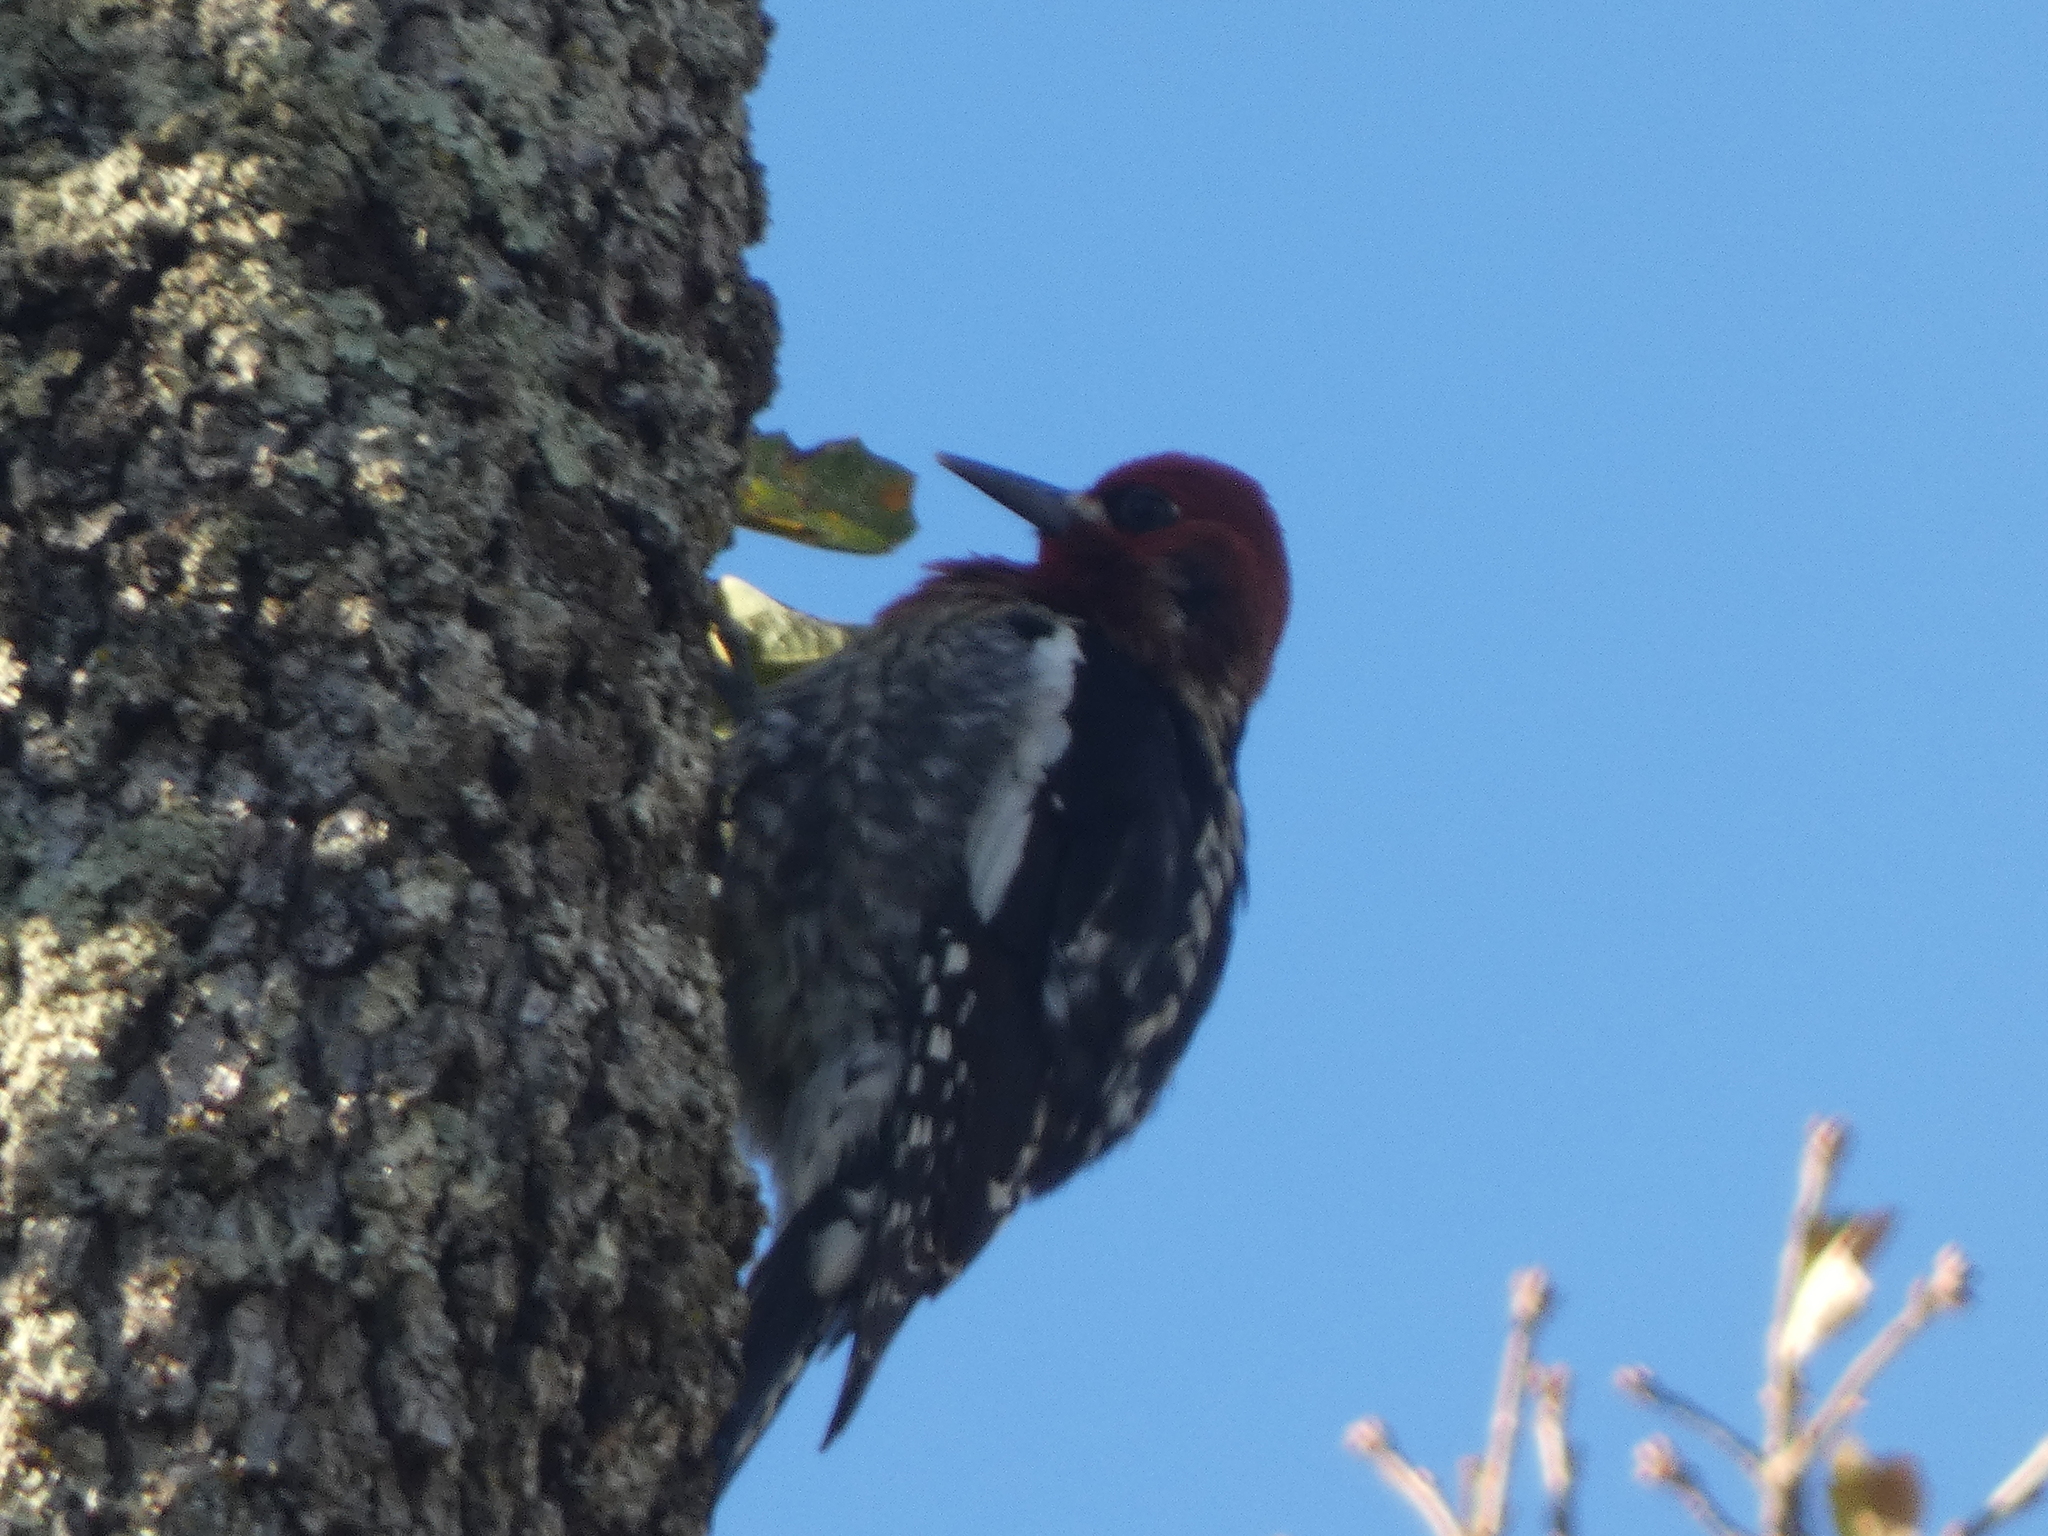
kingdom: Animalia
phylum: Chordata
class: Aves
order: Piciformes
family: Picidae
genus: Sphyrapicus
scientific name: Sphyrapicus ruber
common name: Red-breasted sapsucker
